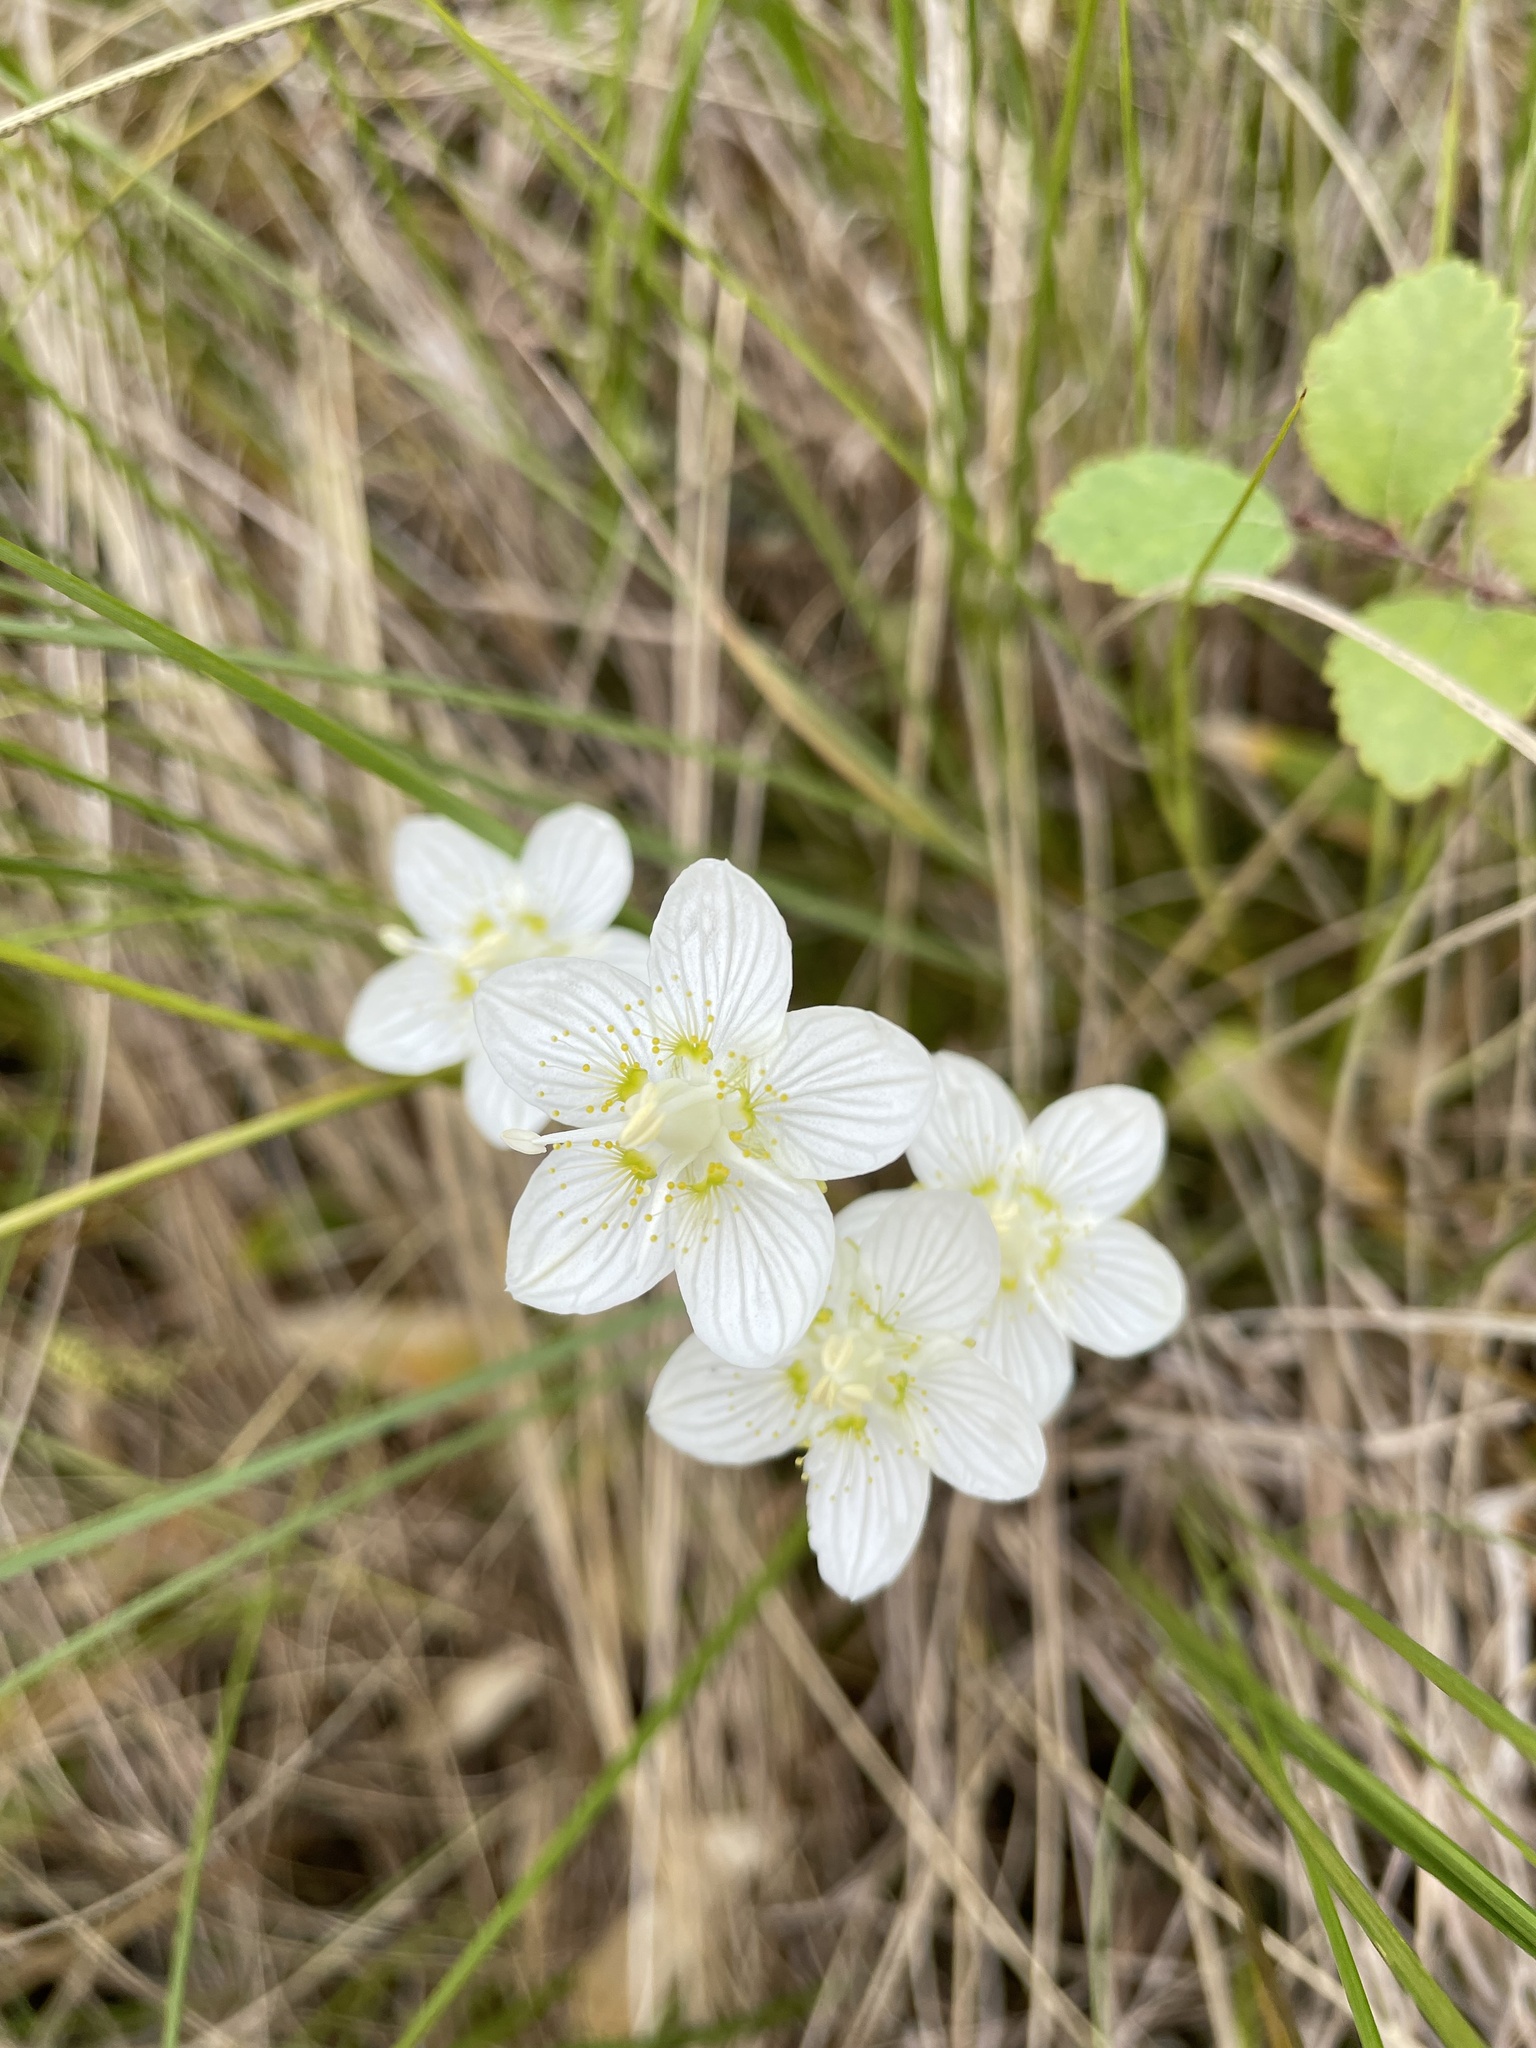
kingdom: Plantae
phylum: Tracheophyta
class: Magnoliopsida
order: Celastrales
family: Parnassiaceae
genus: Parnassia
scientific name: Parnassia palustris
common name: Grass-of-parnassus
